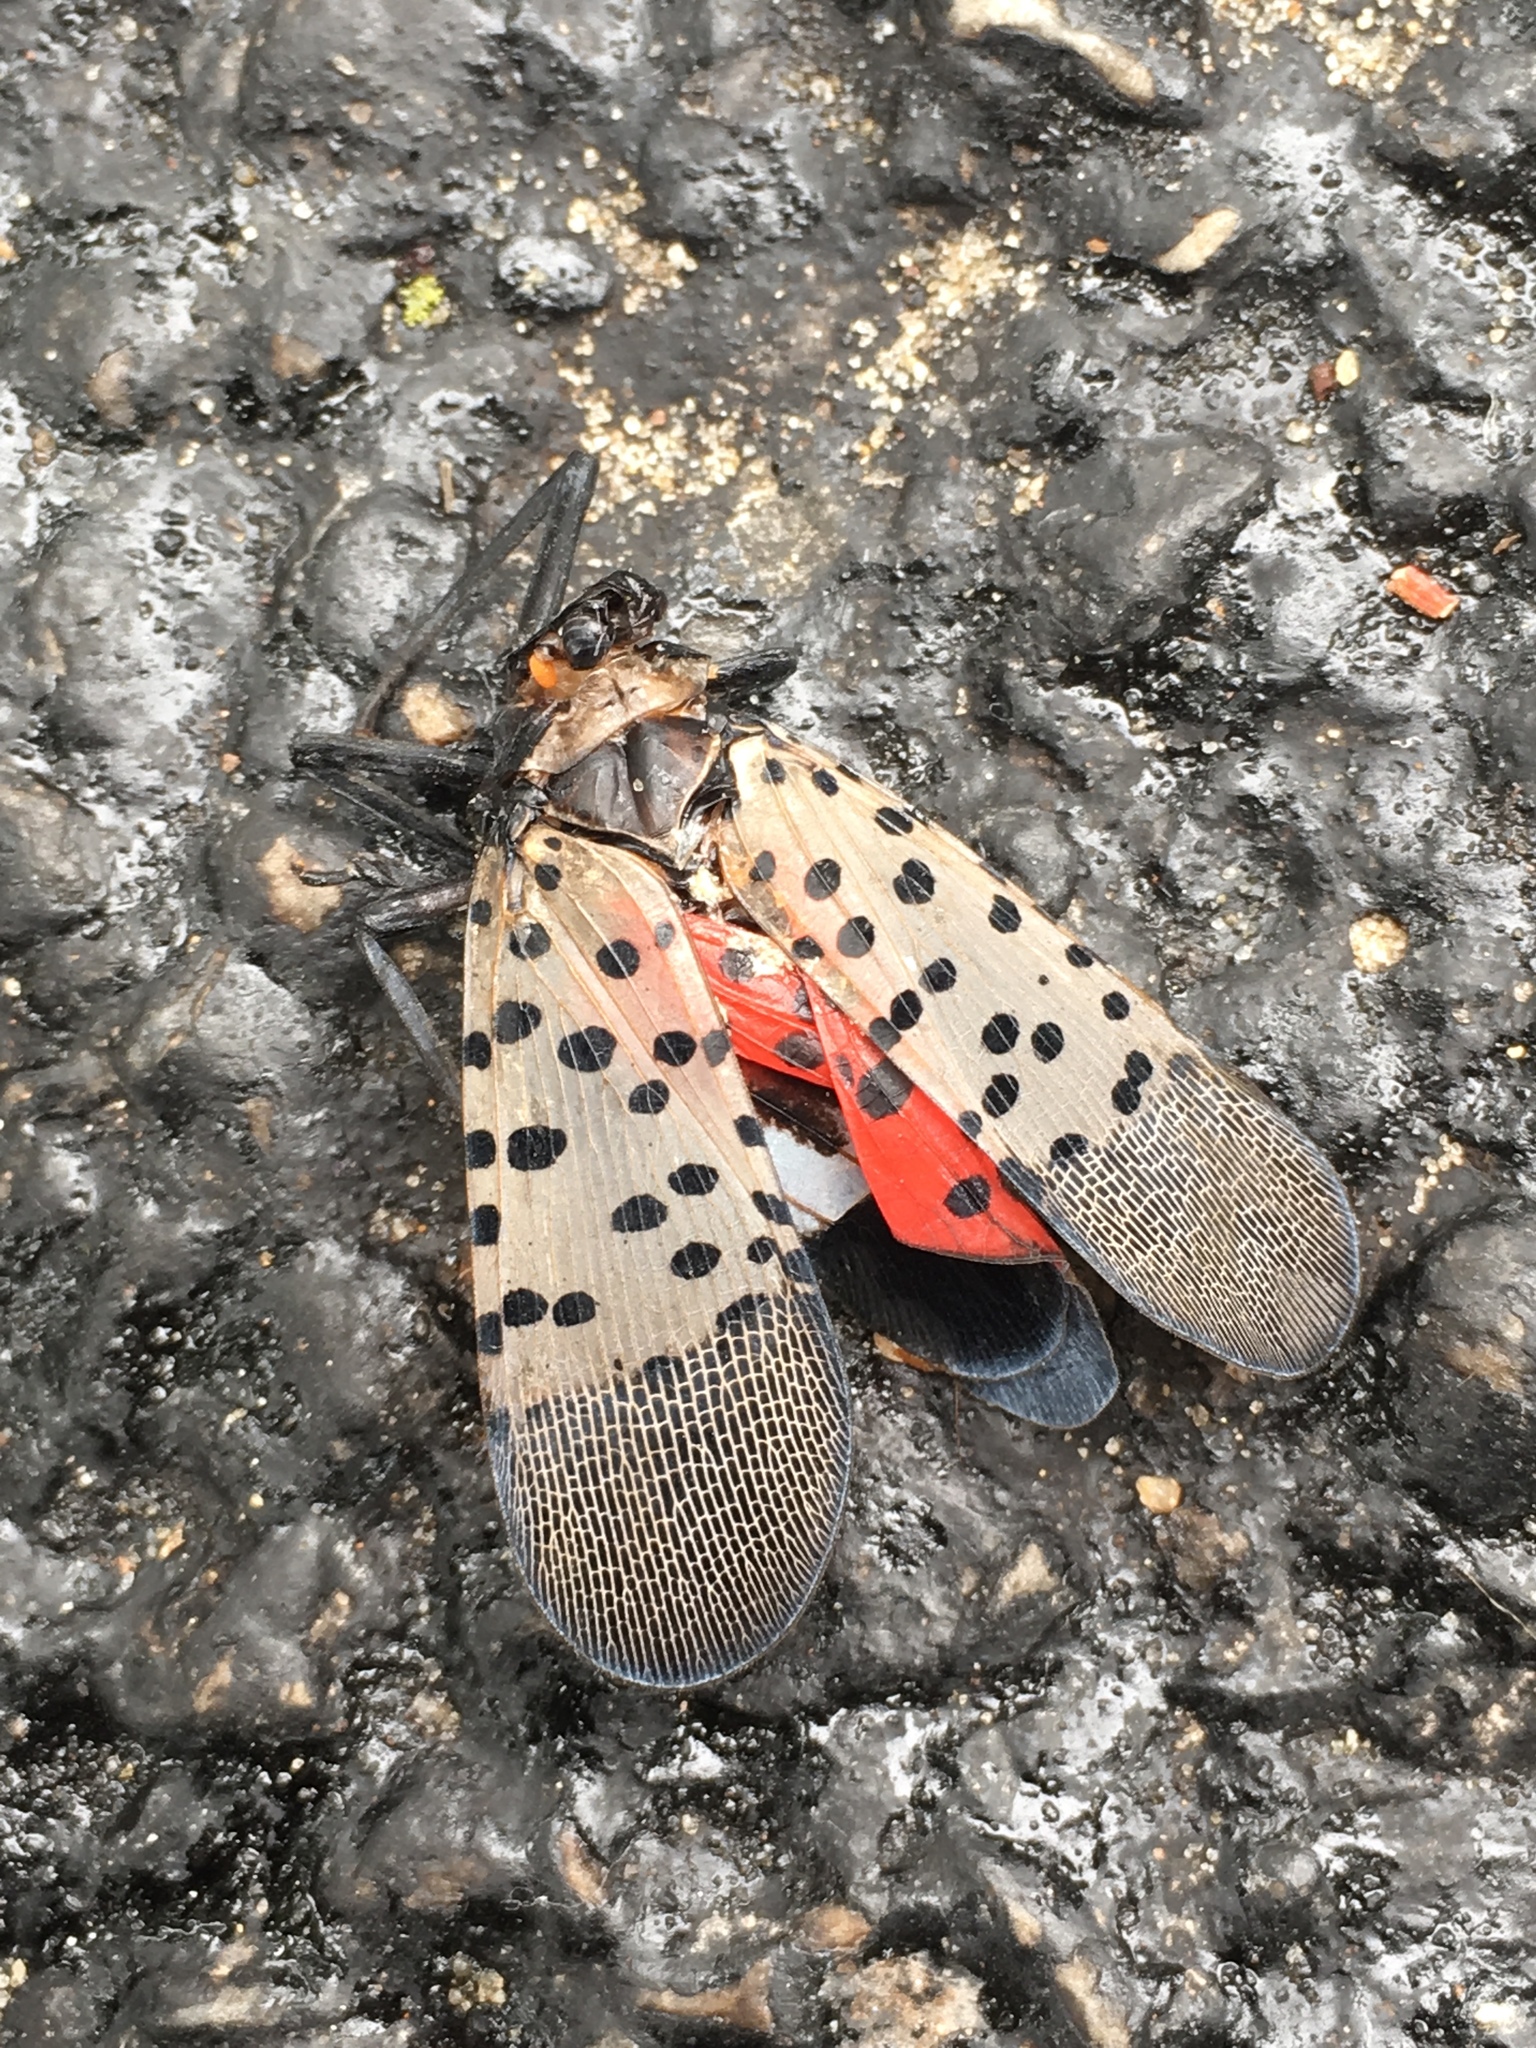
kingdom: Animalia
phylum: Arthropoda
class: Insecta
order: Hemiptera
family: Fulgoridae
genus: Lycorma
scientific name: Lycorma delicatula
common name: Spotted lanternfly
